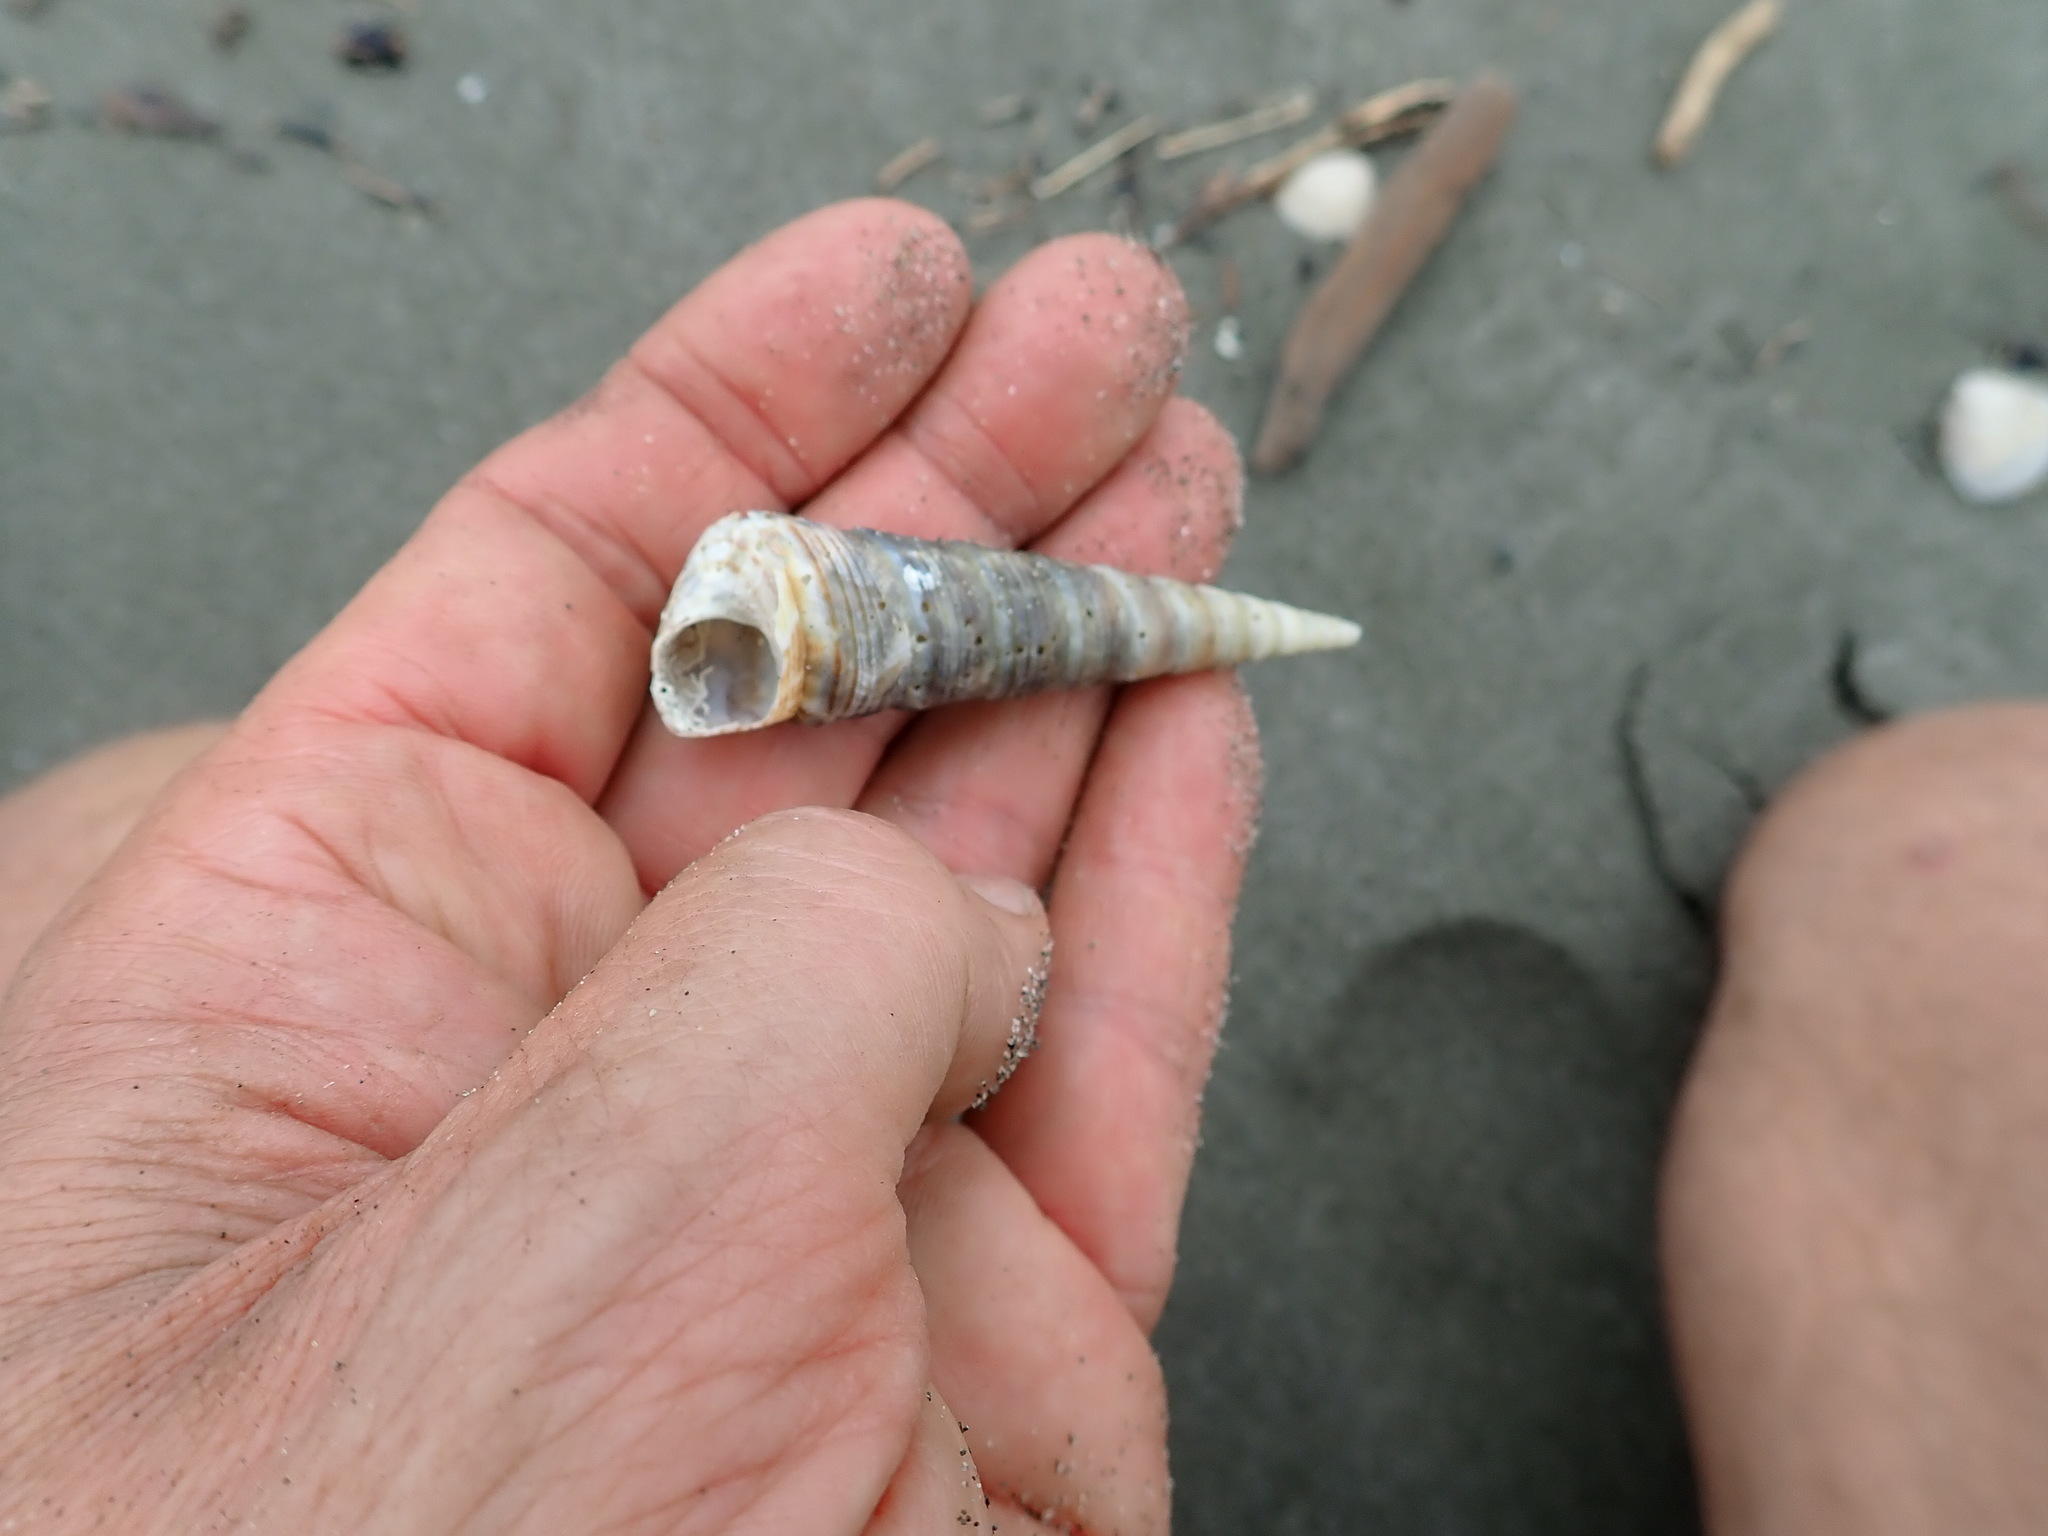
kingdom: Animalia
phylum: Mollusca
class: Gastropoda
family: Turritellidae
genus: Zeacolpus
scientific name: Zeacolpus vittatus
